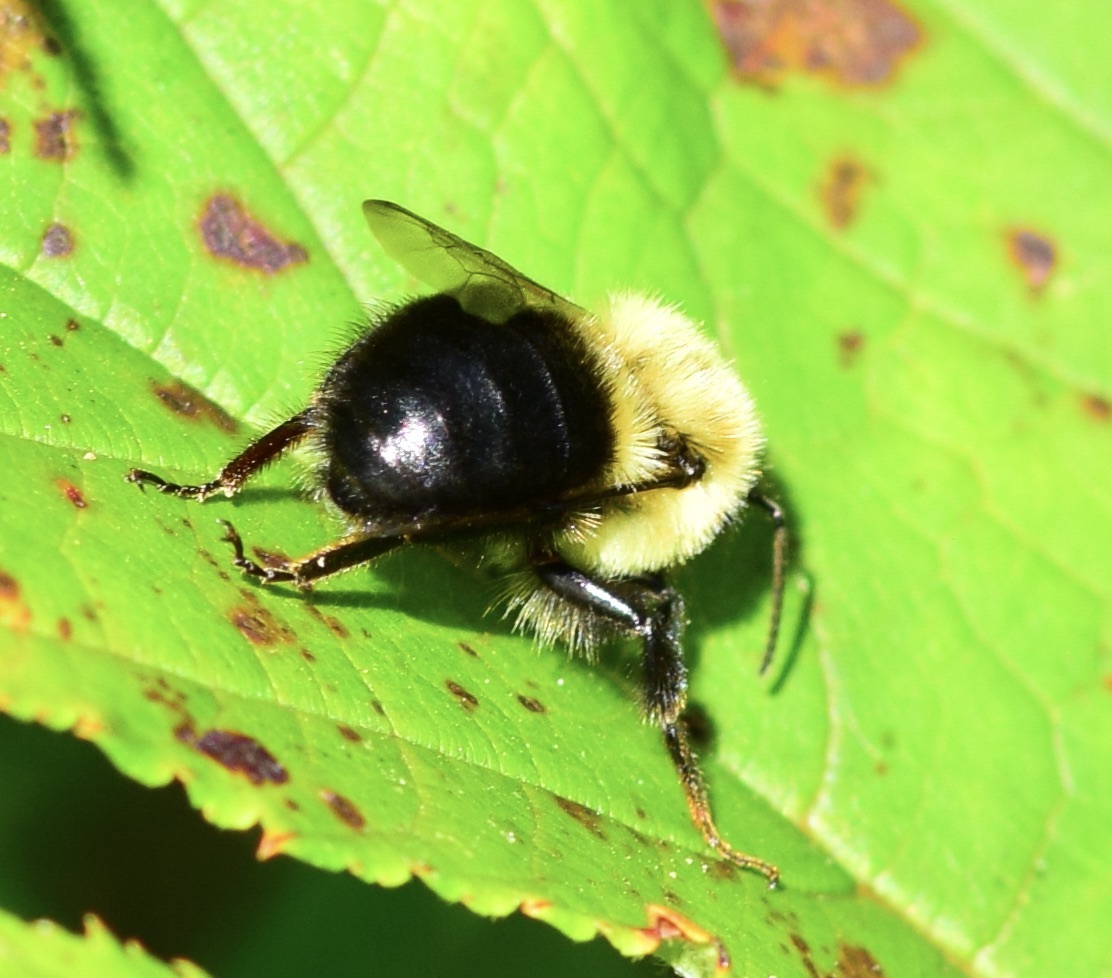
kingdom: Animalia
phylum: Arthropoda
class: Insecta
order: Hymenoptera
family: Apidae
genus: Bombus
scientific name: Bombus impatiens
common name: Common eastern bumble bee
